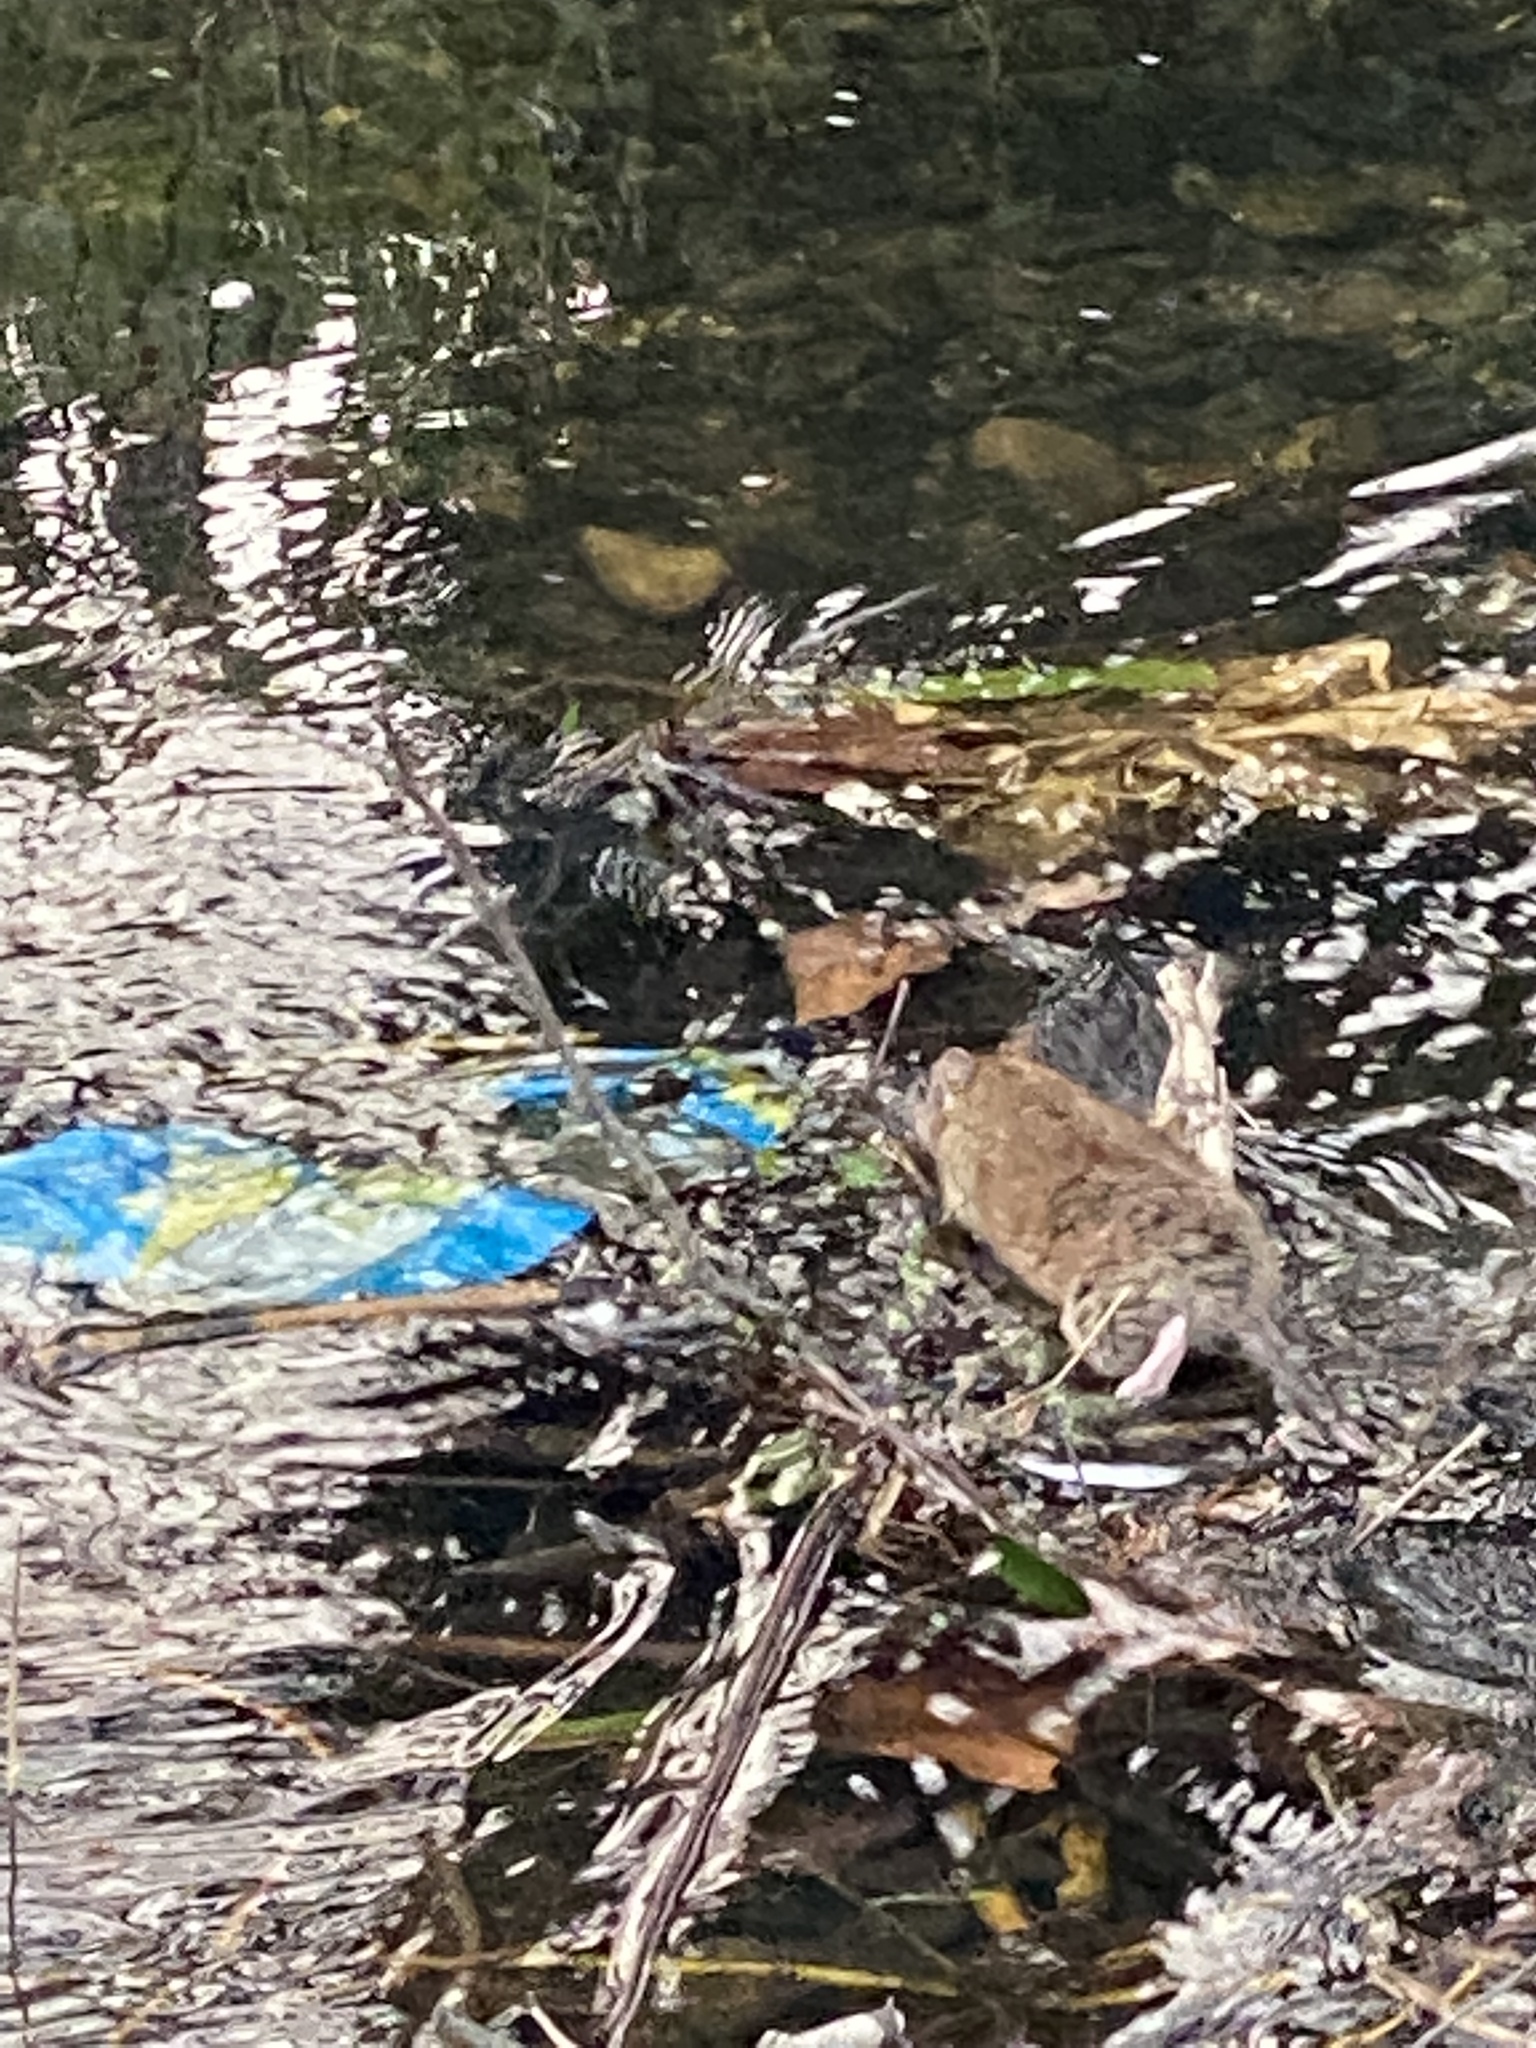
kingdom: Animalia
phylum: Chordata
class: Mammalia
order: Rodentia
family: Muridae
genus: Rattus
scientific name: Rattus norvegicus
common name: Brown rat
